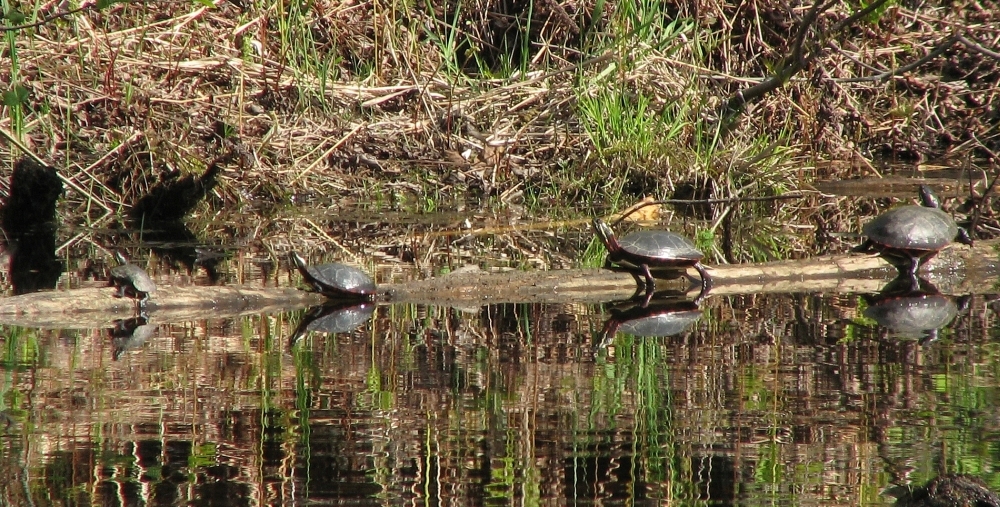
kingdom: Animalia
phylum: Chordata
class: Testudines
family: Emydidae
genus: Chrysemys
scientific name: Chrysemys picta
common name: Painted turtle
